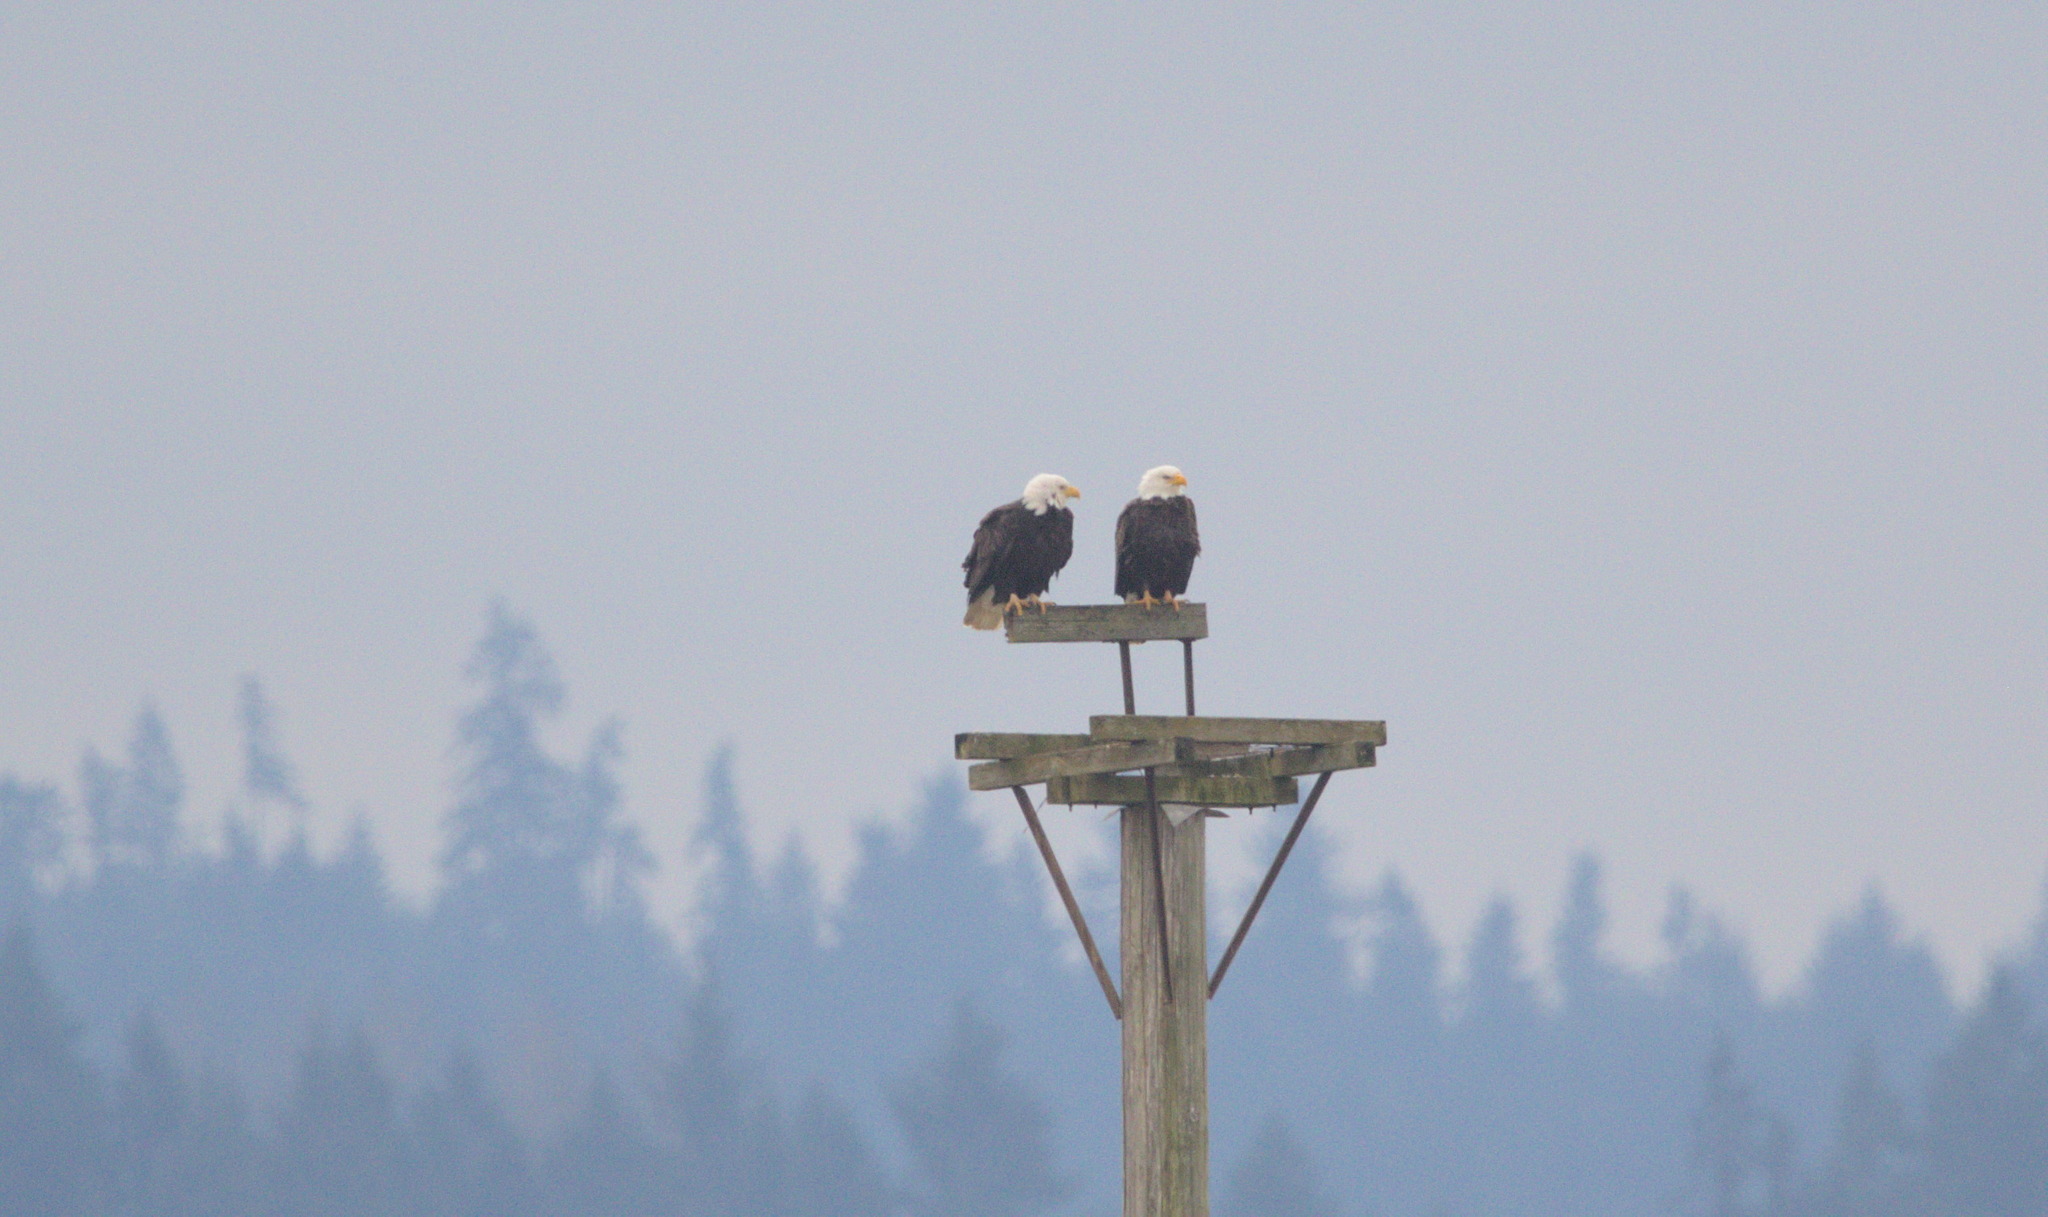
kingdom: Animalia
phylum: Chordata
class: Aves
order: Accipitriformes
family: Accipitridae
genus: Haliaeetus
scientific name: Haliaeetus leucocephalus
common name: Bald eagle
